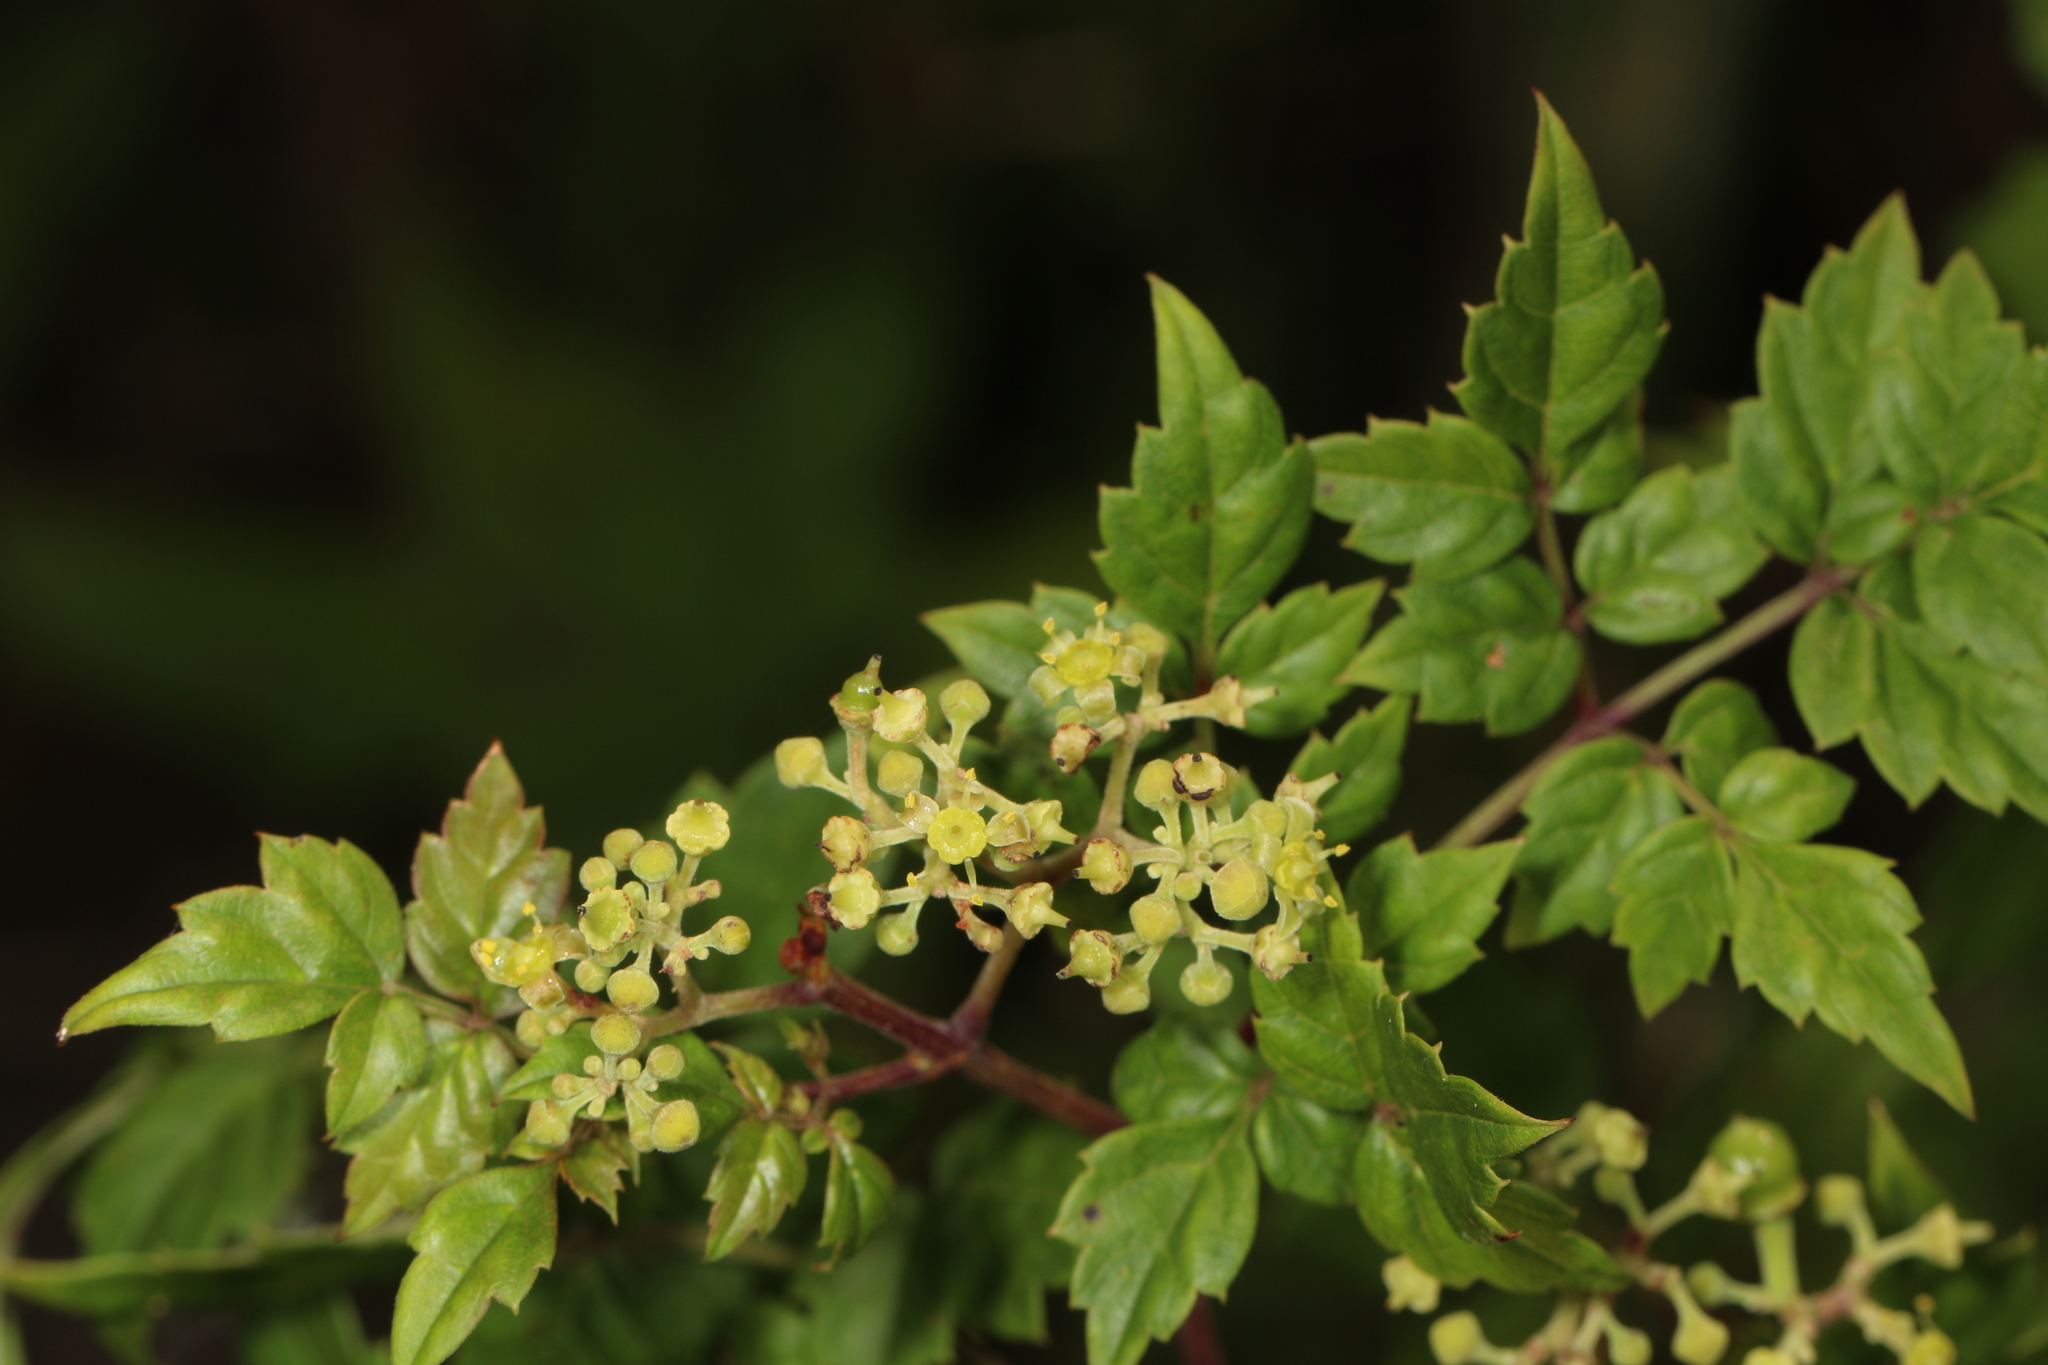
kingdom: Plantae
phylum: Tracheophyta
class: Magnoliopsida
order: Vitales
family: Vitaceae
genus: Nekemias
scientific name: Nekemias arborea
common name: Peppervine
